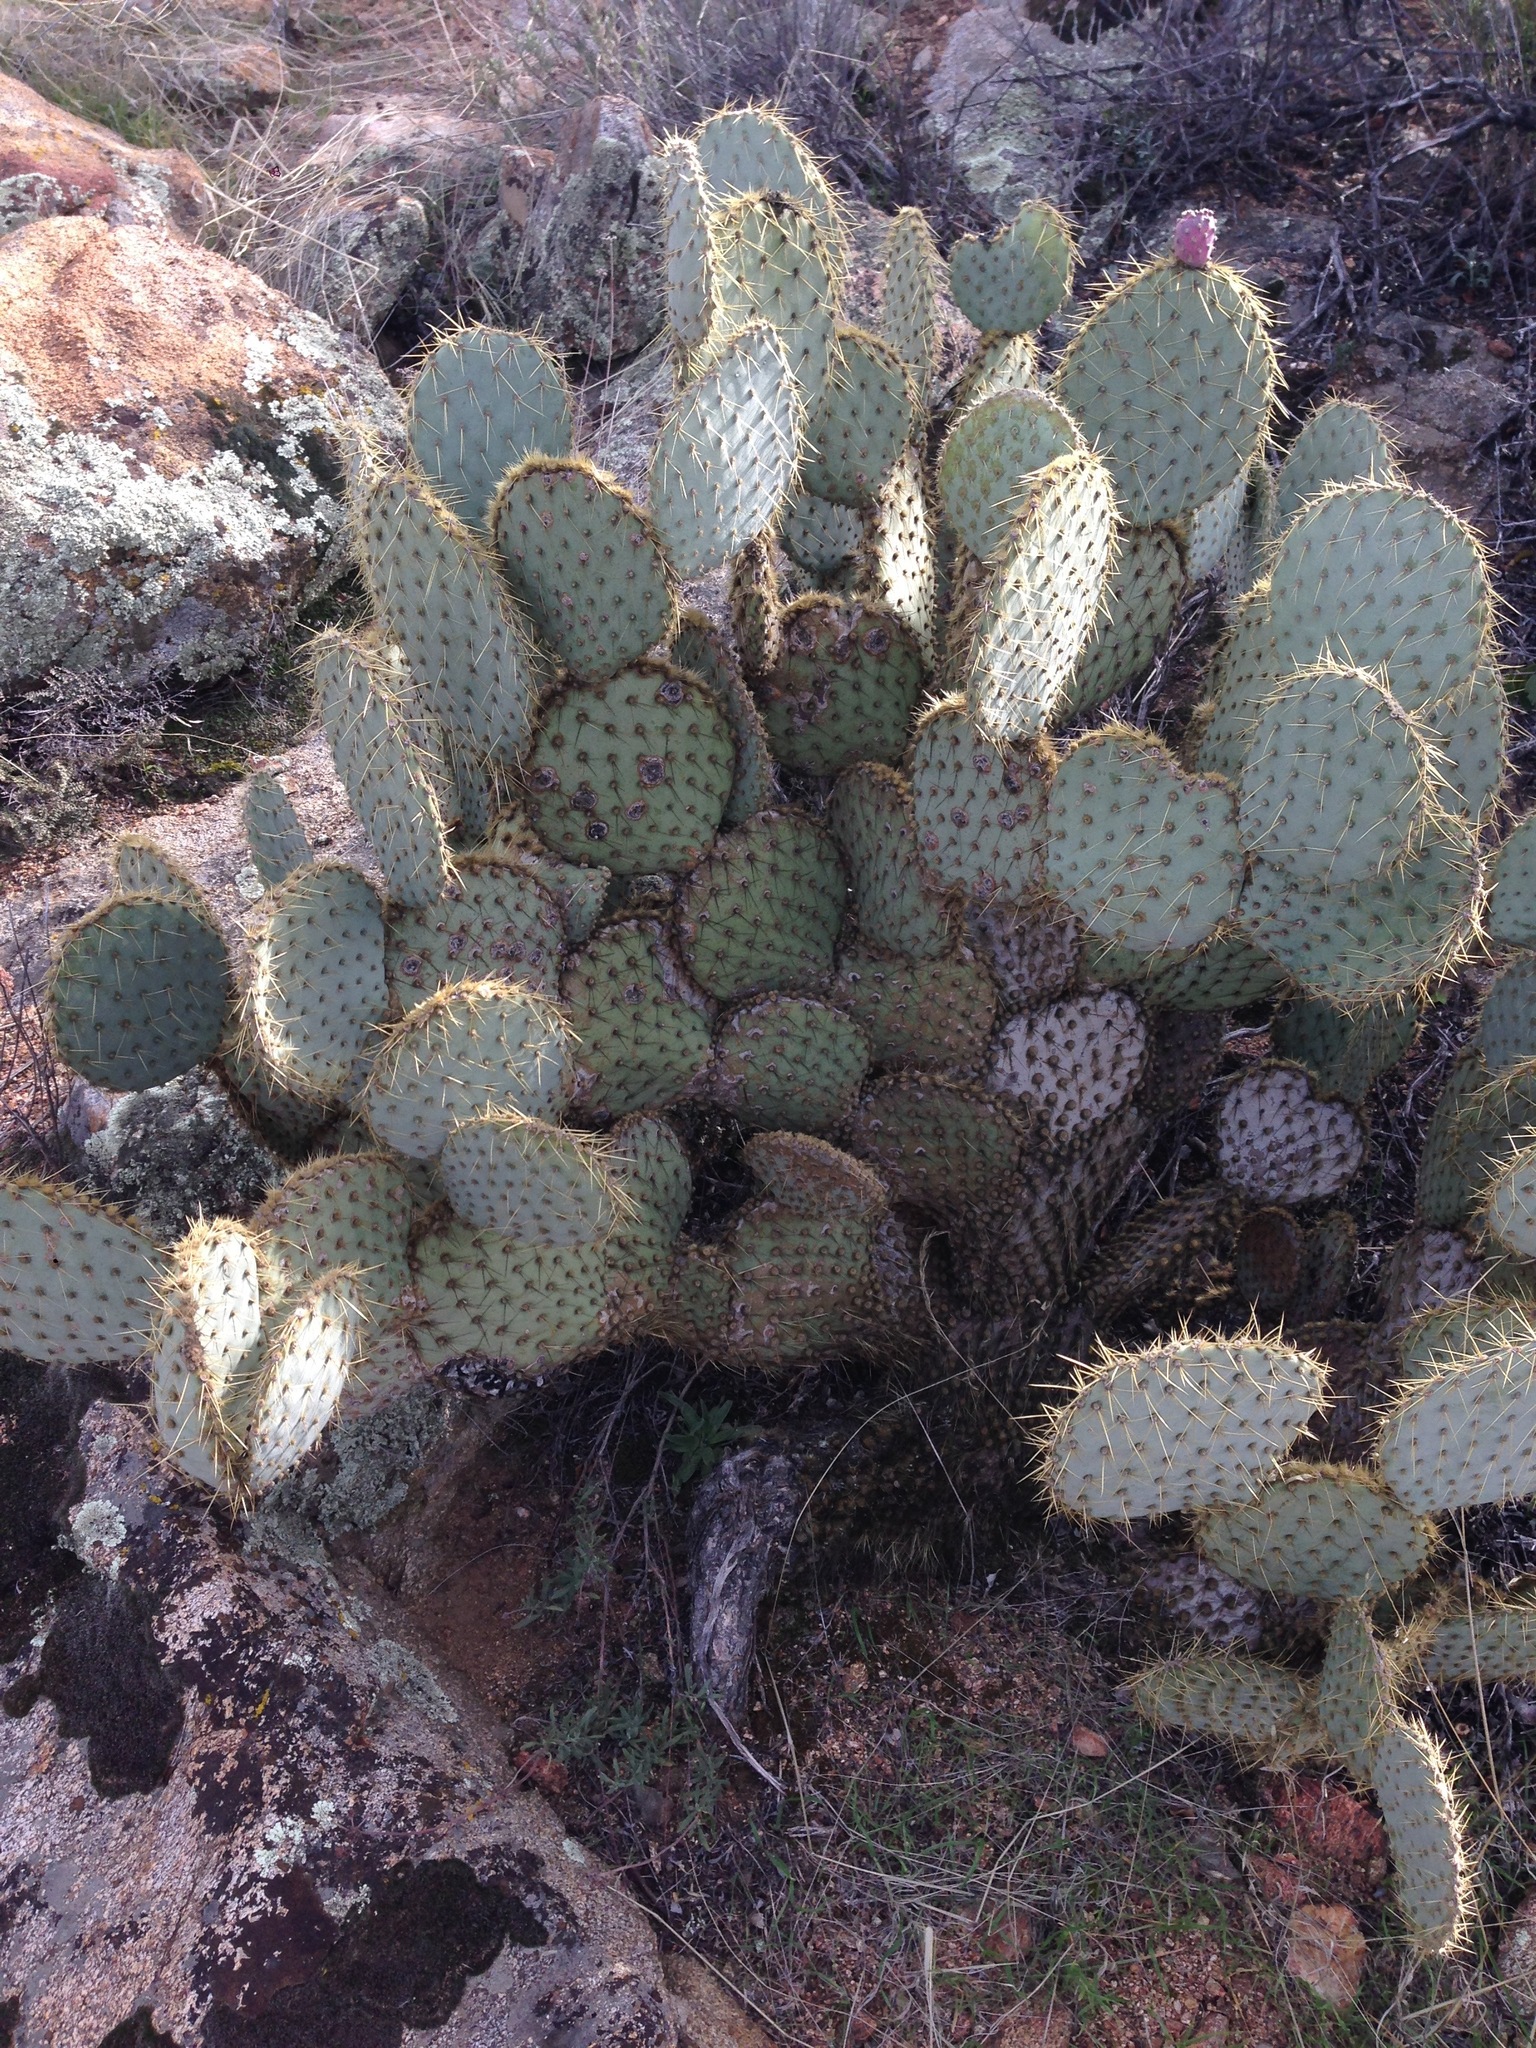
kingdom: Plantae
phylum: Tracheophyta
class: Magnoliopsida
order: Caryophyllales
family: Cactaceae
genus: Opuntia
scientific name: Opuntia chlorotica
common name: Dollar-joint prickly-pear
